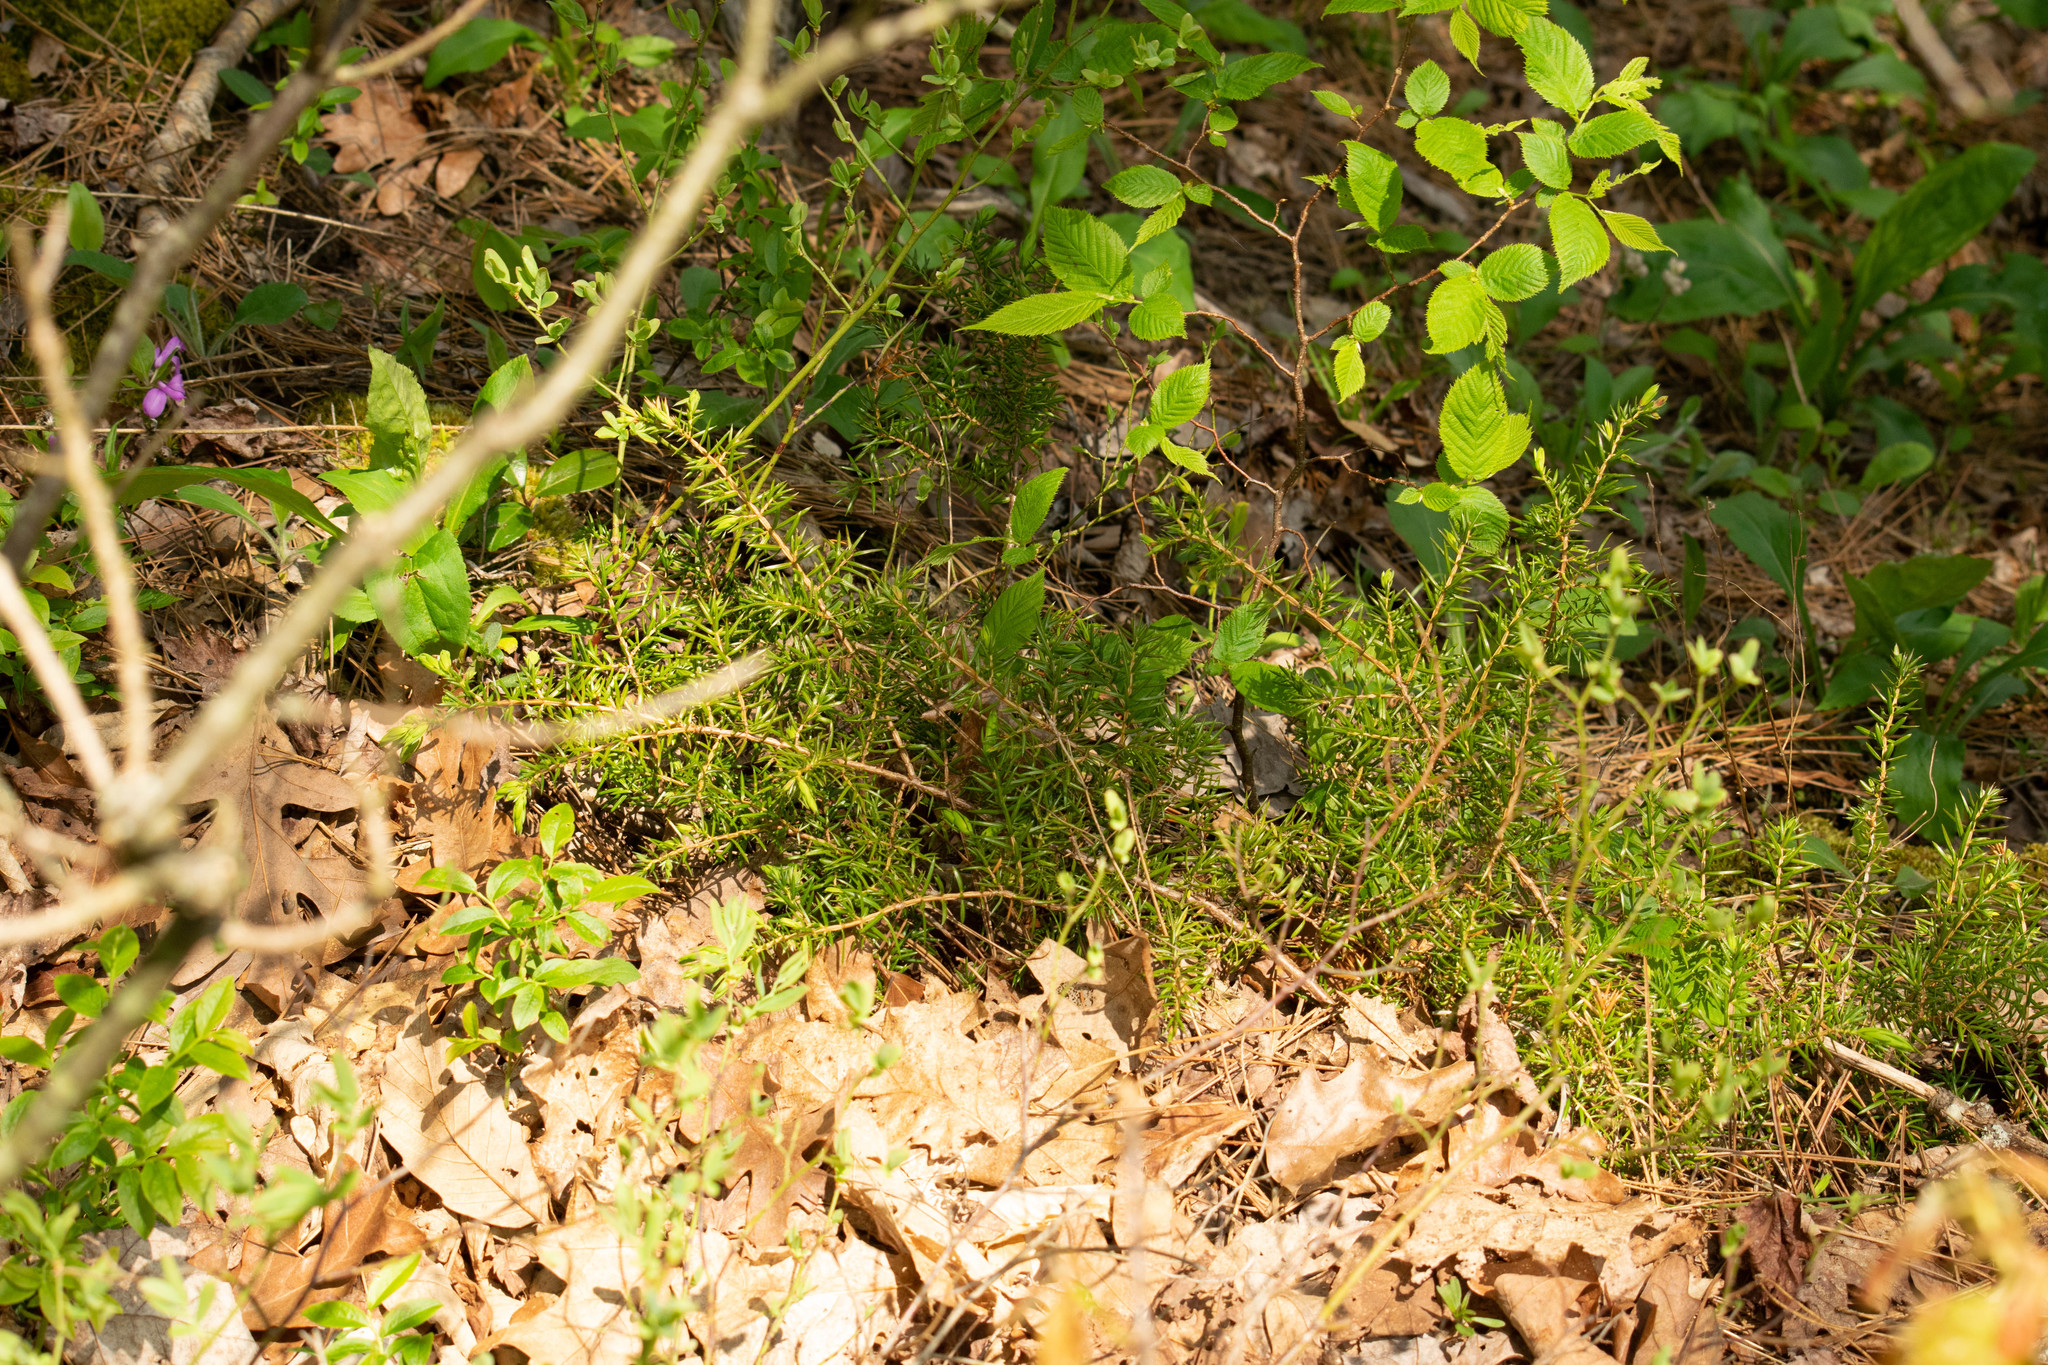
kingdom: Plantae
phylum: Tracheophyta
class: Pinopsida
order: Pinales
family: Cupressaceae
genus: Juniperus
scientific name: Juniperus communis
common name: Common juniper
